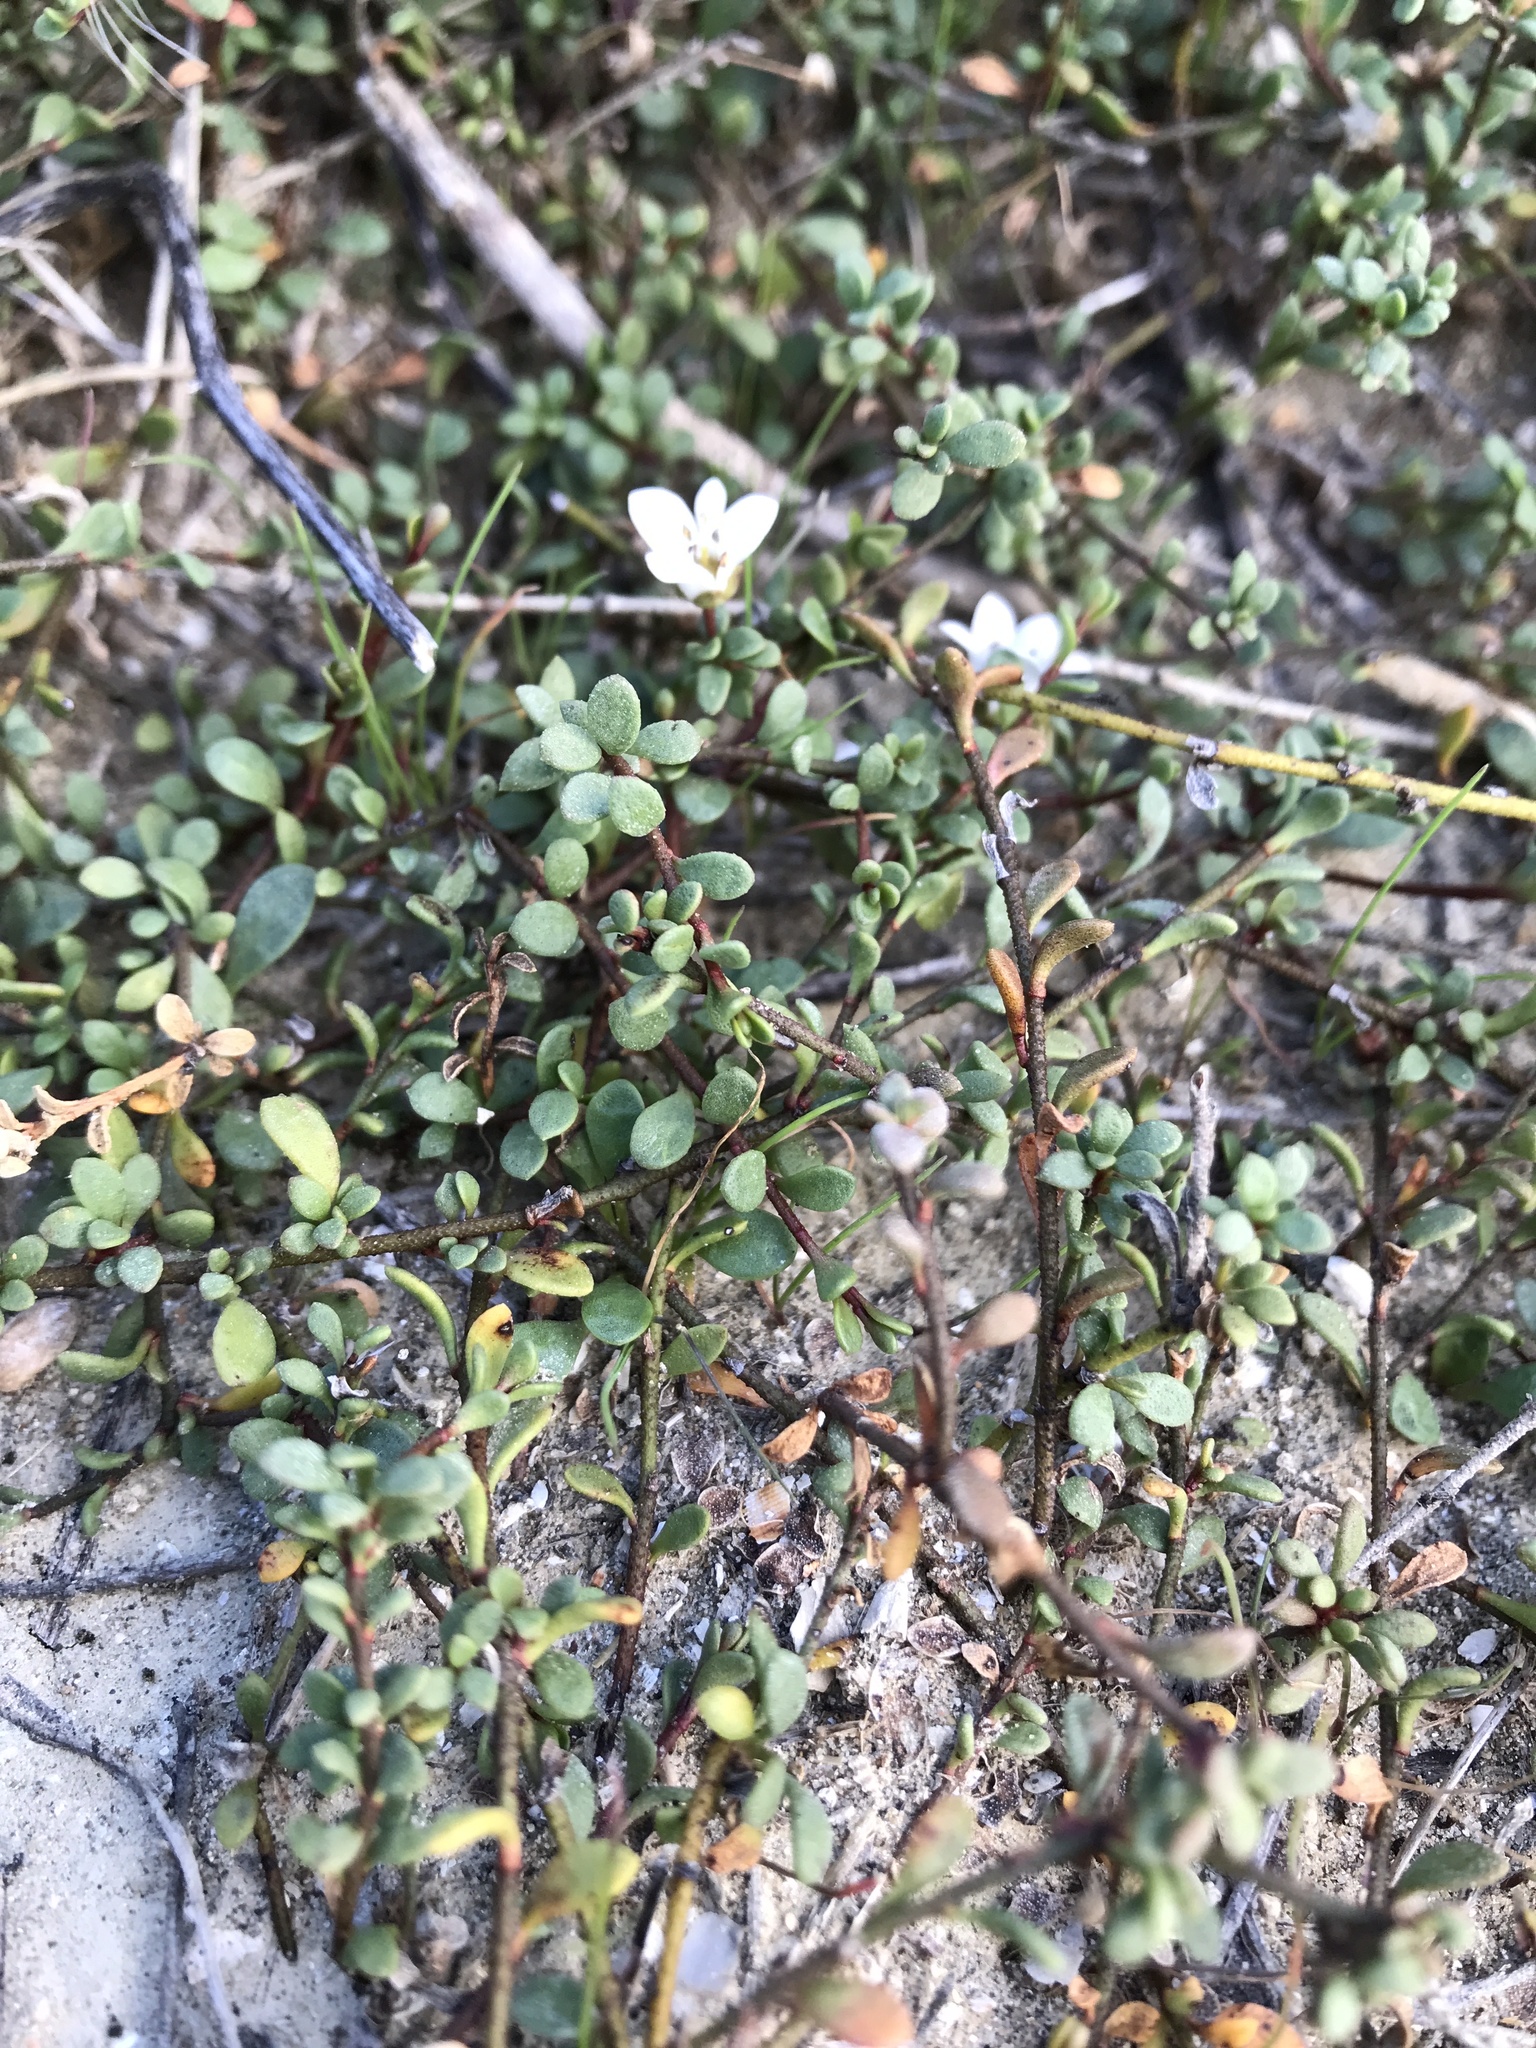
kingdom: Plantae
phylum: Tracheophyta
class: Magnoliopsida
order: Ericales
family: Primulaceae
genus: Samolus
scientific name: Samolus repens
